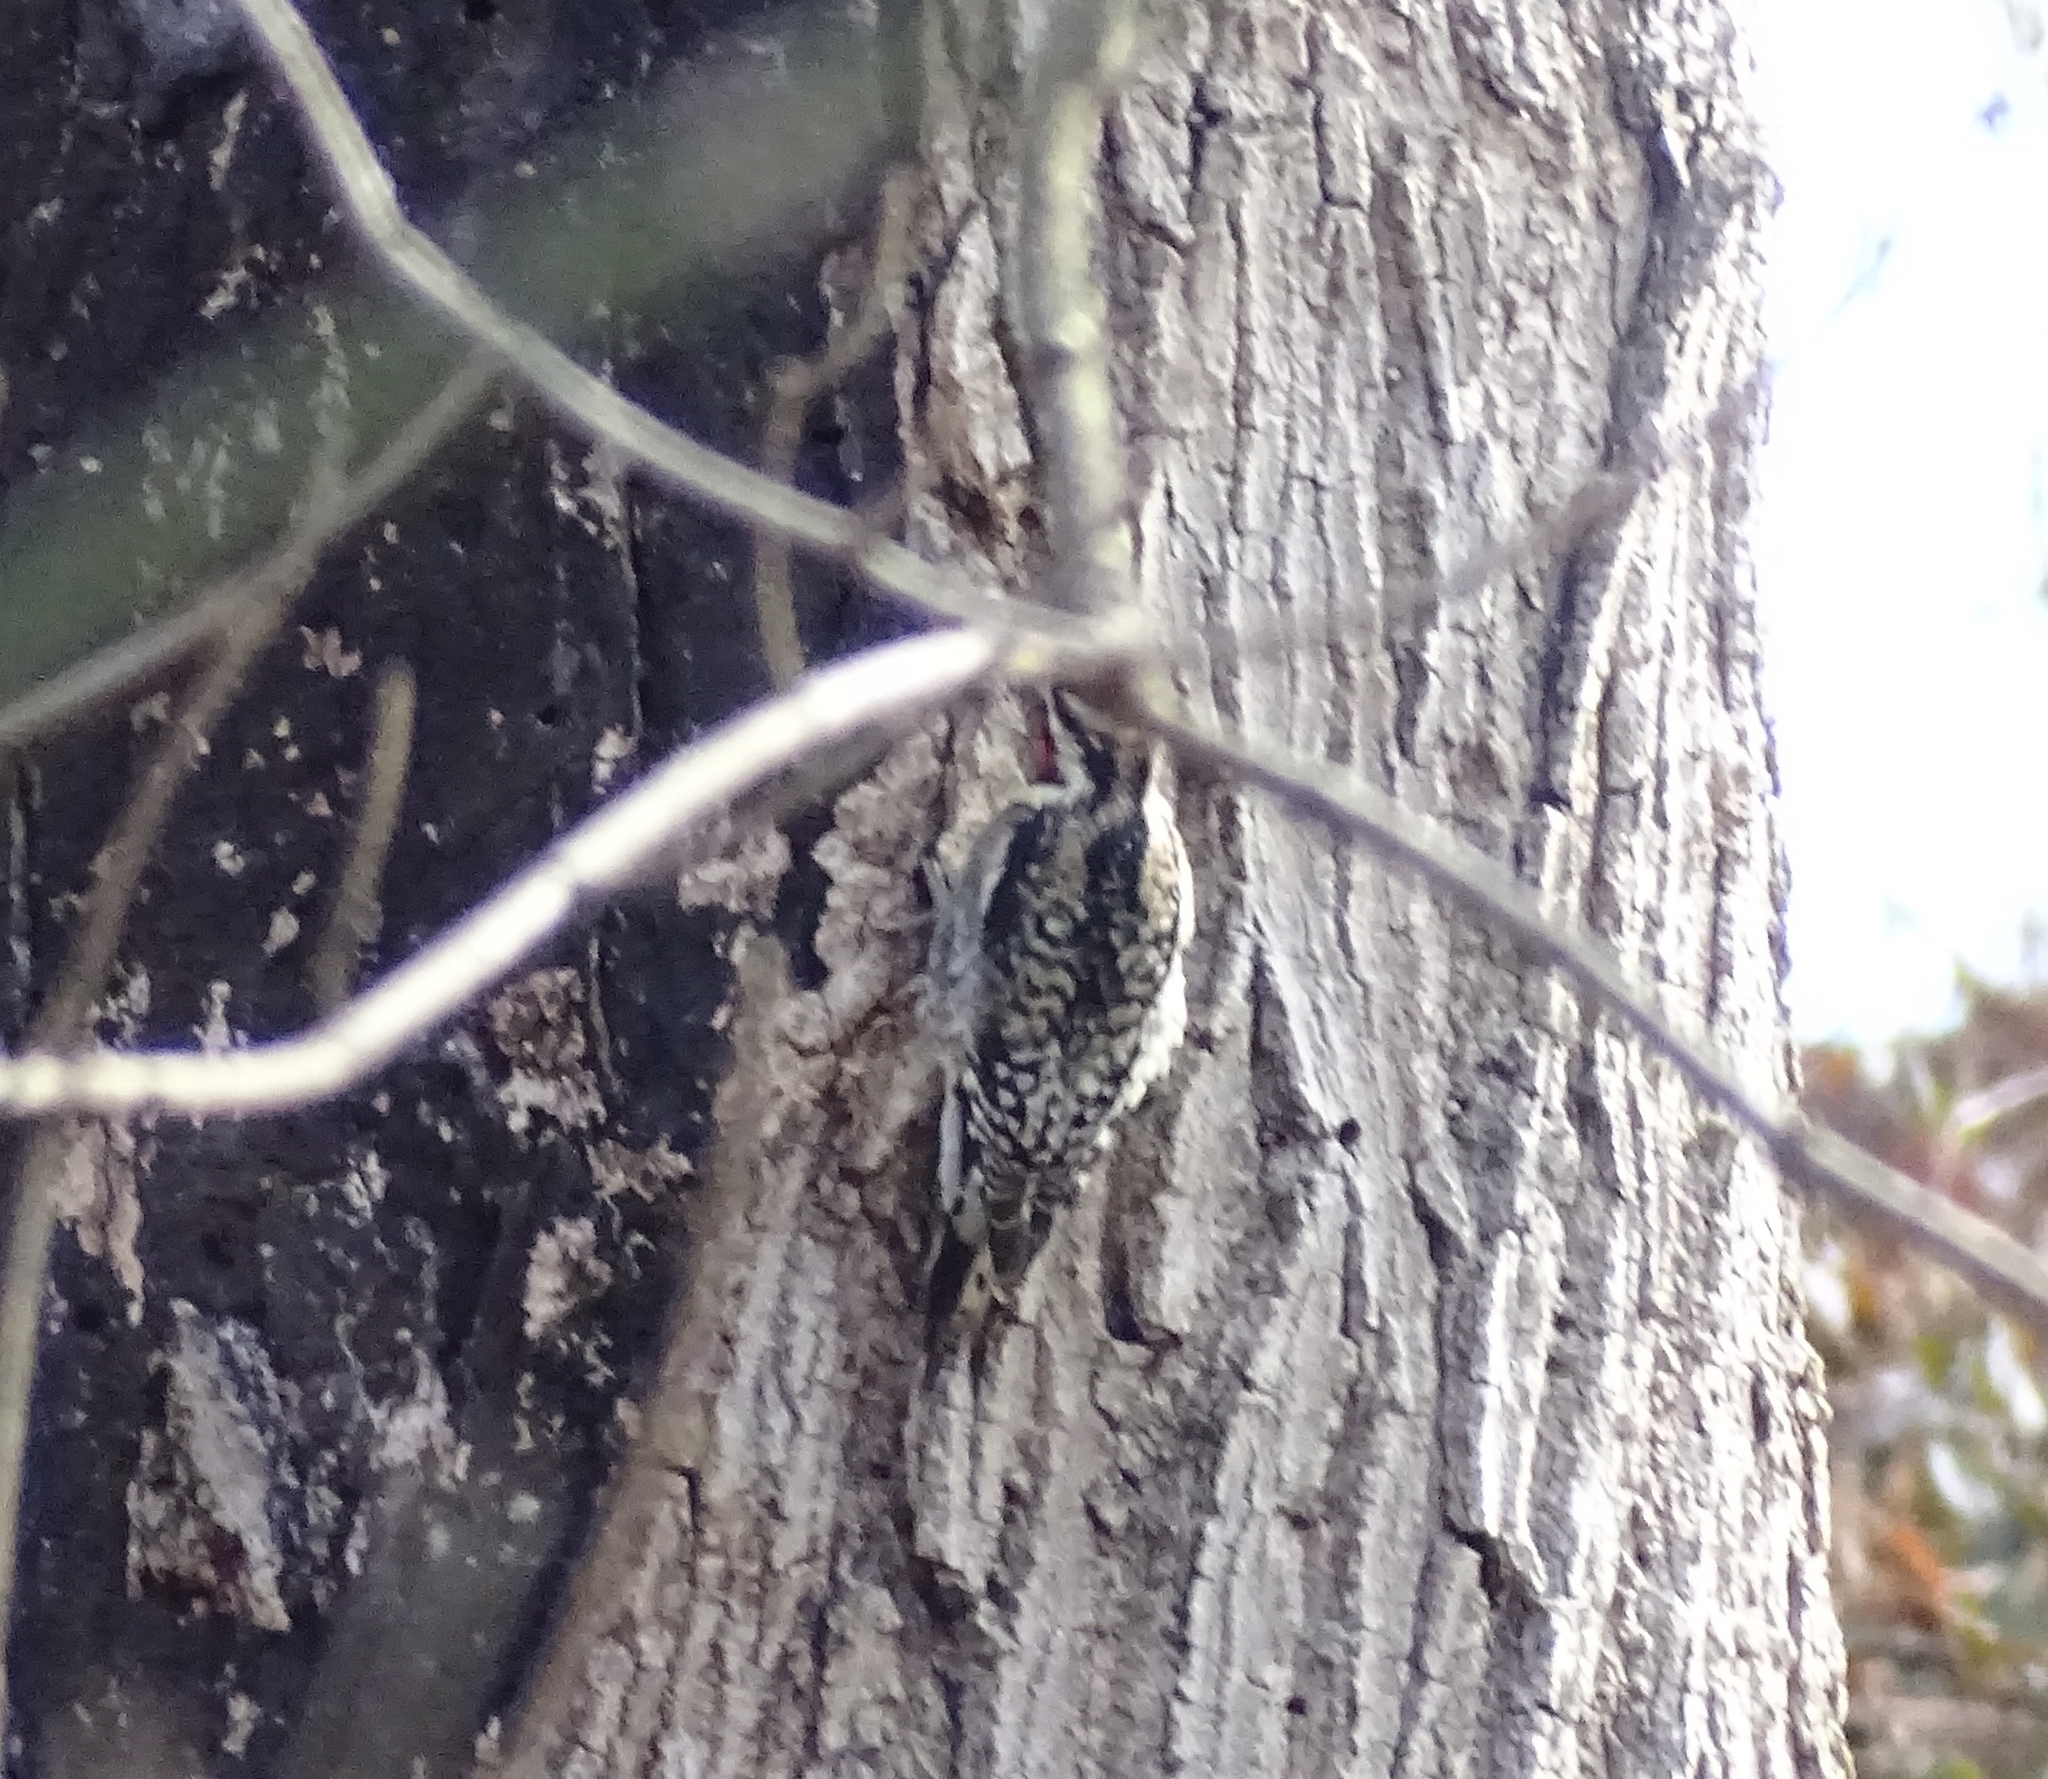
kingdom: Animalia
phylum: Chordata
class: Aves
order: Piciformes
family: Picidae
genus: Sphyrapicus
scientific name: Sphyrapicus varius
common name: Yellow-bellied sapsucker
